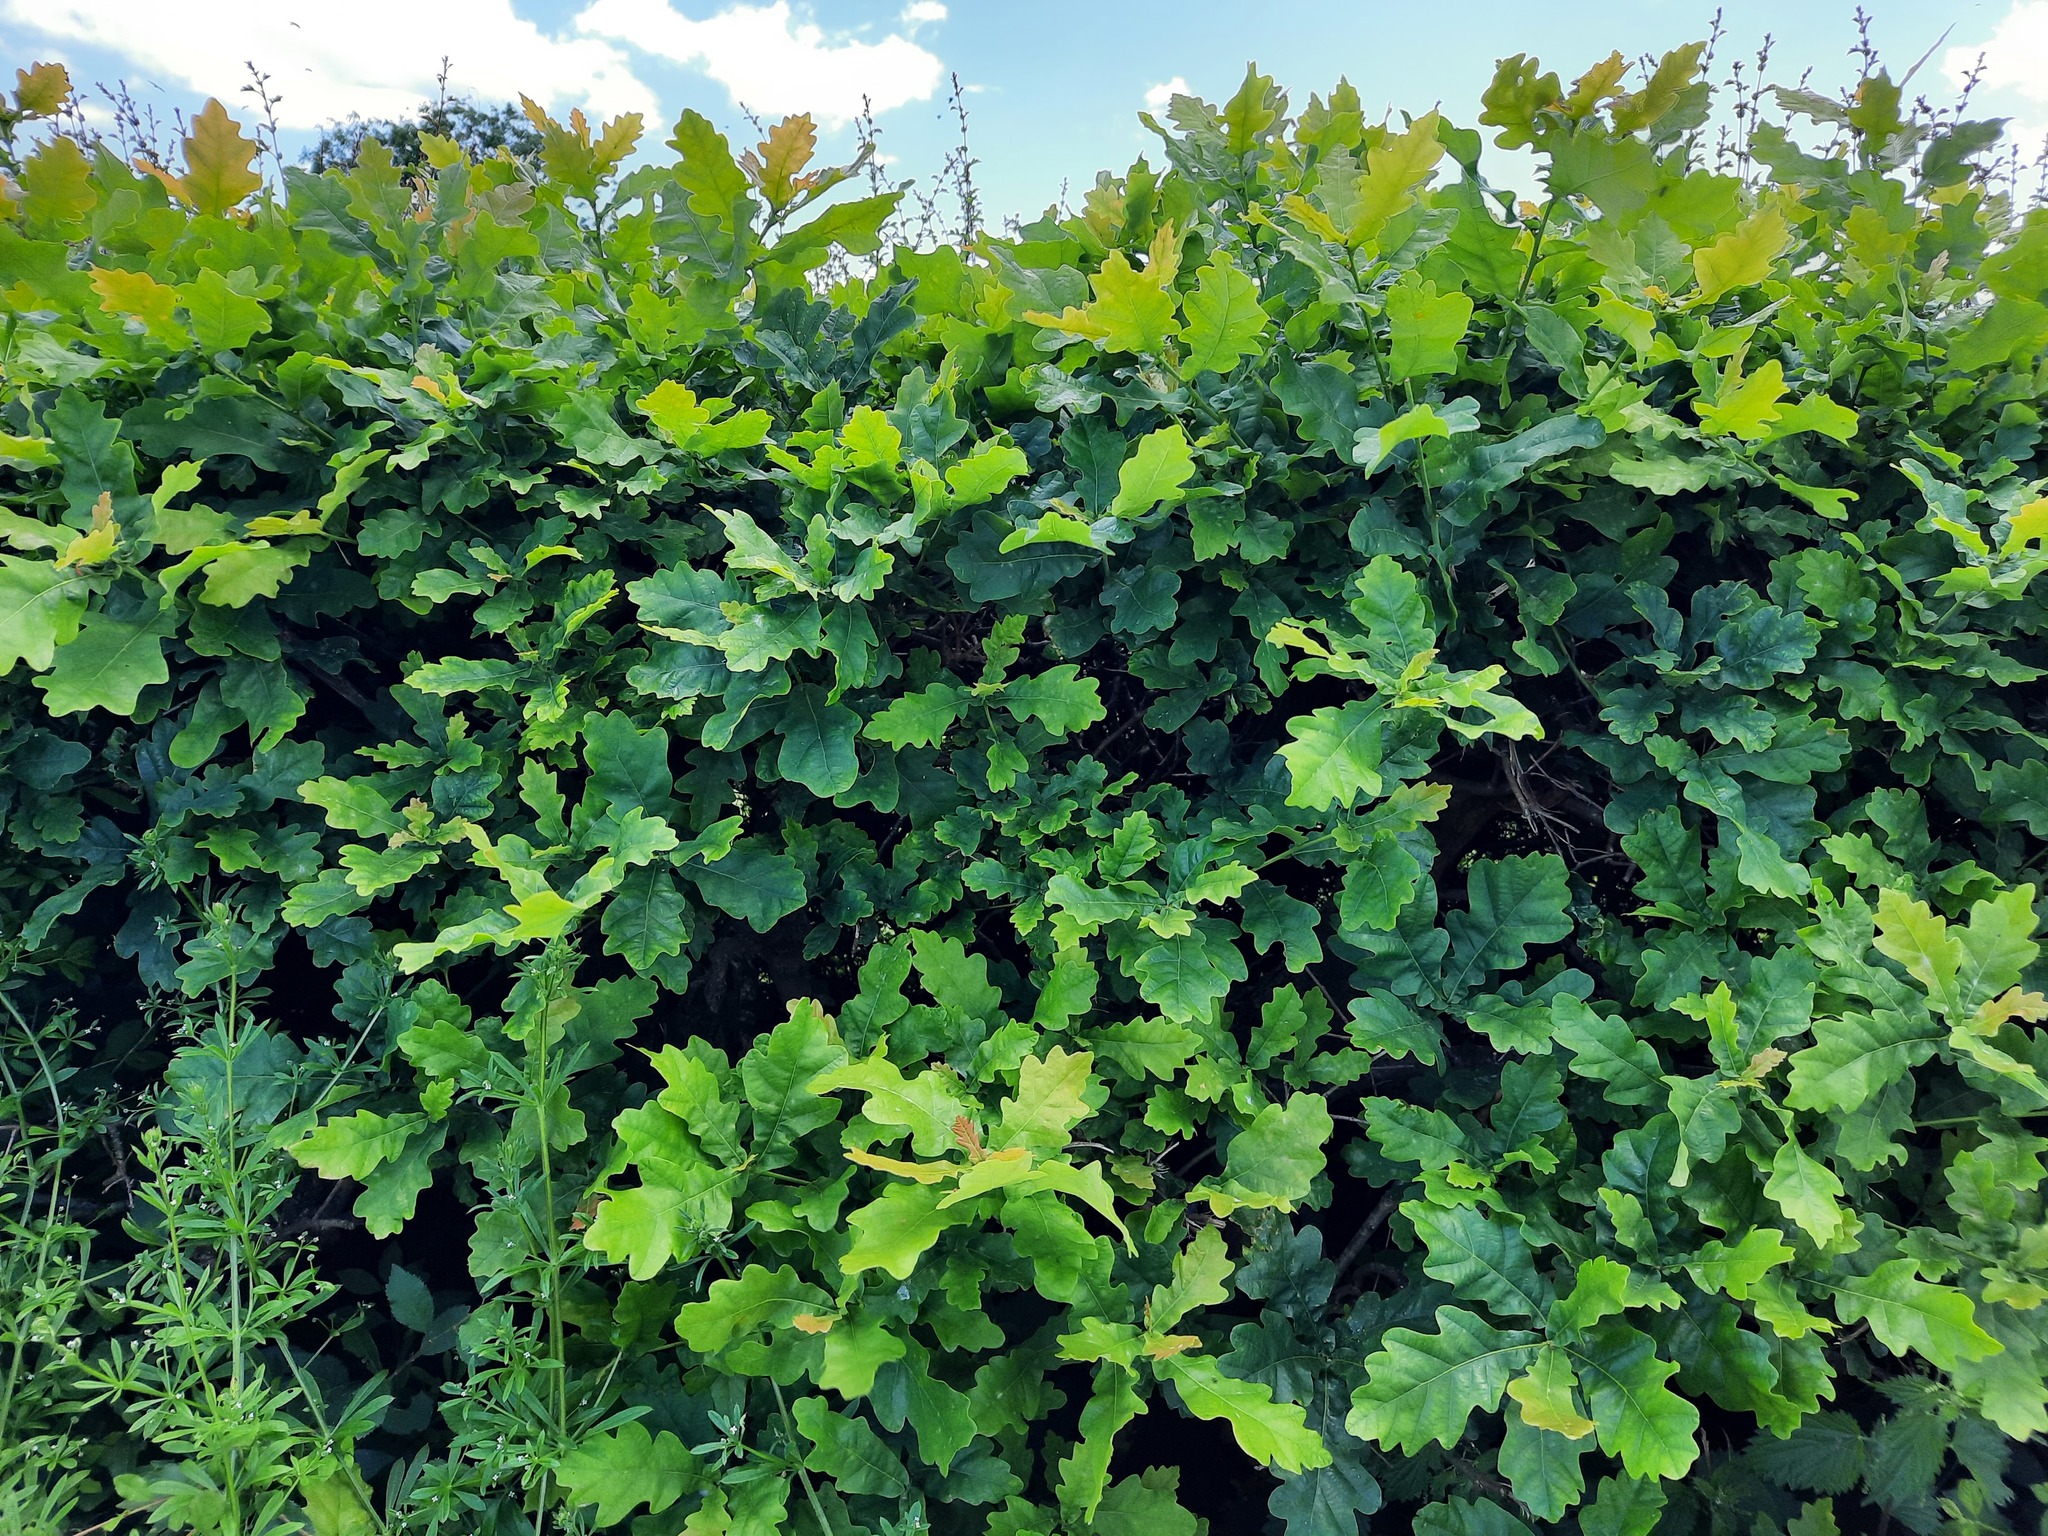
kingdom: Plantae
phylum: Tracheophyta
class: Magnoliopsida
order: Fagales
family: Fagaceae
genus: Quercus
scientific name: Quercus robur
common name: Pedunculate oak
